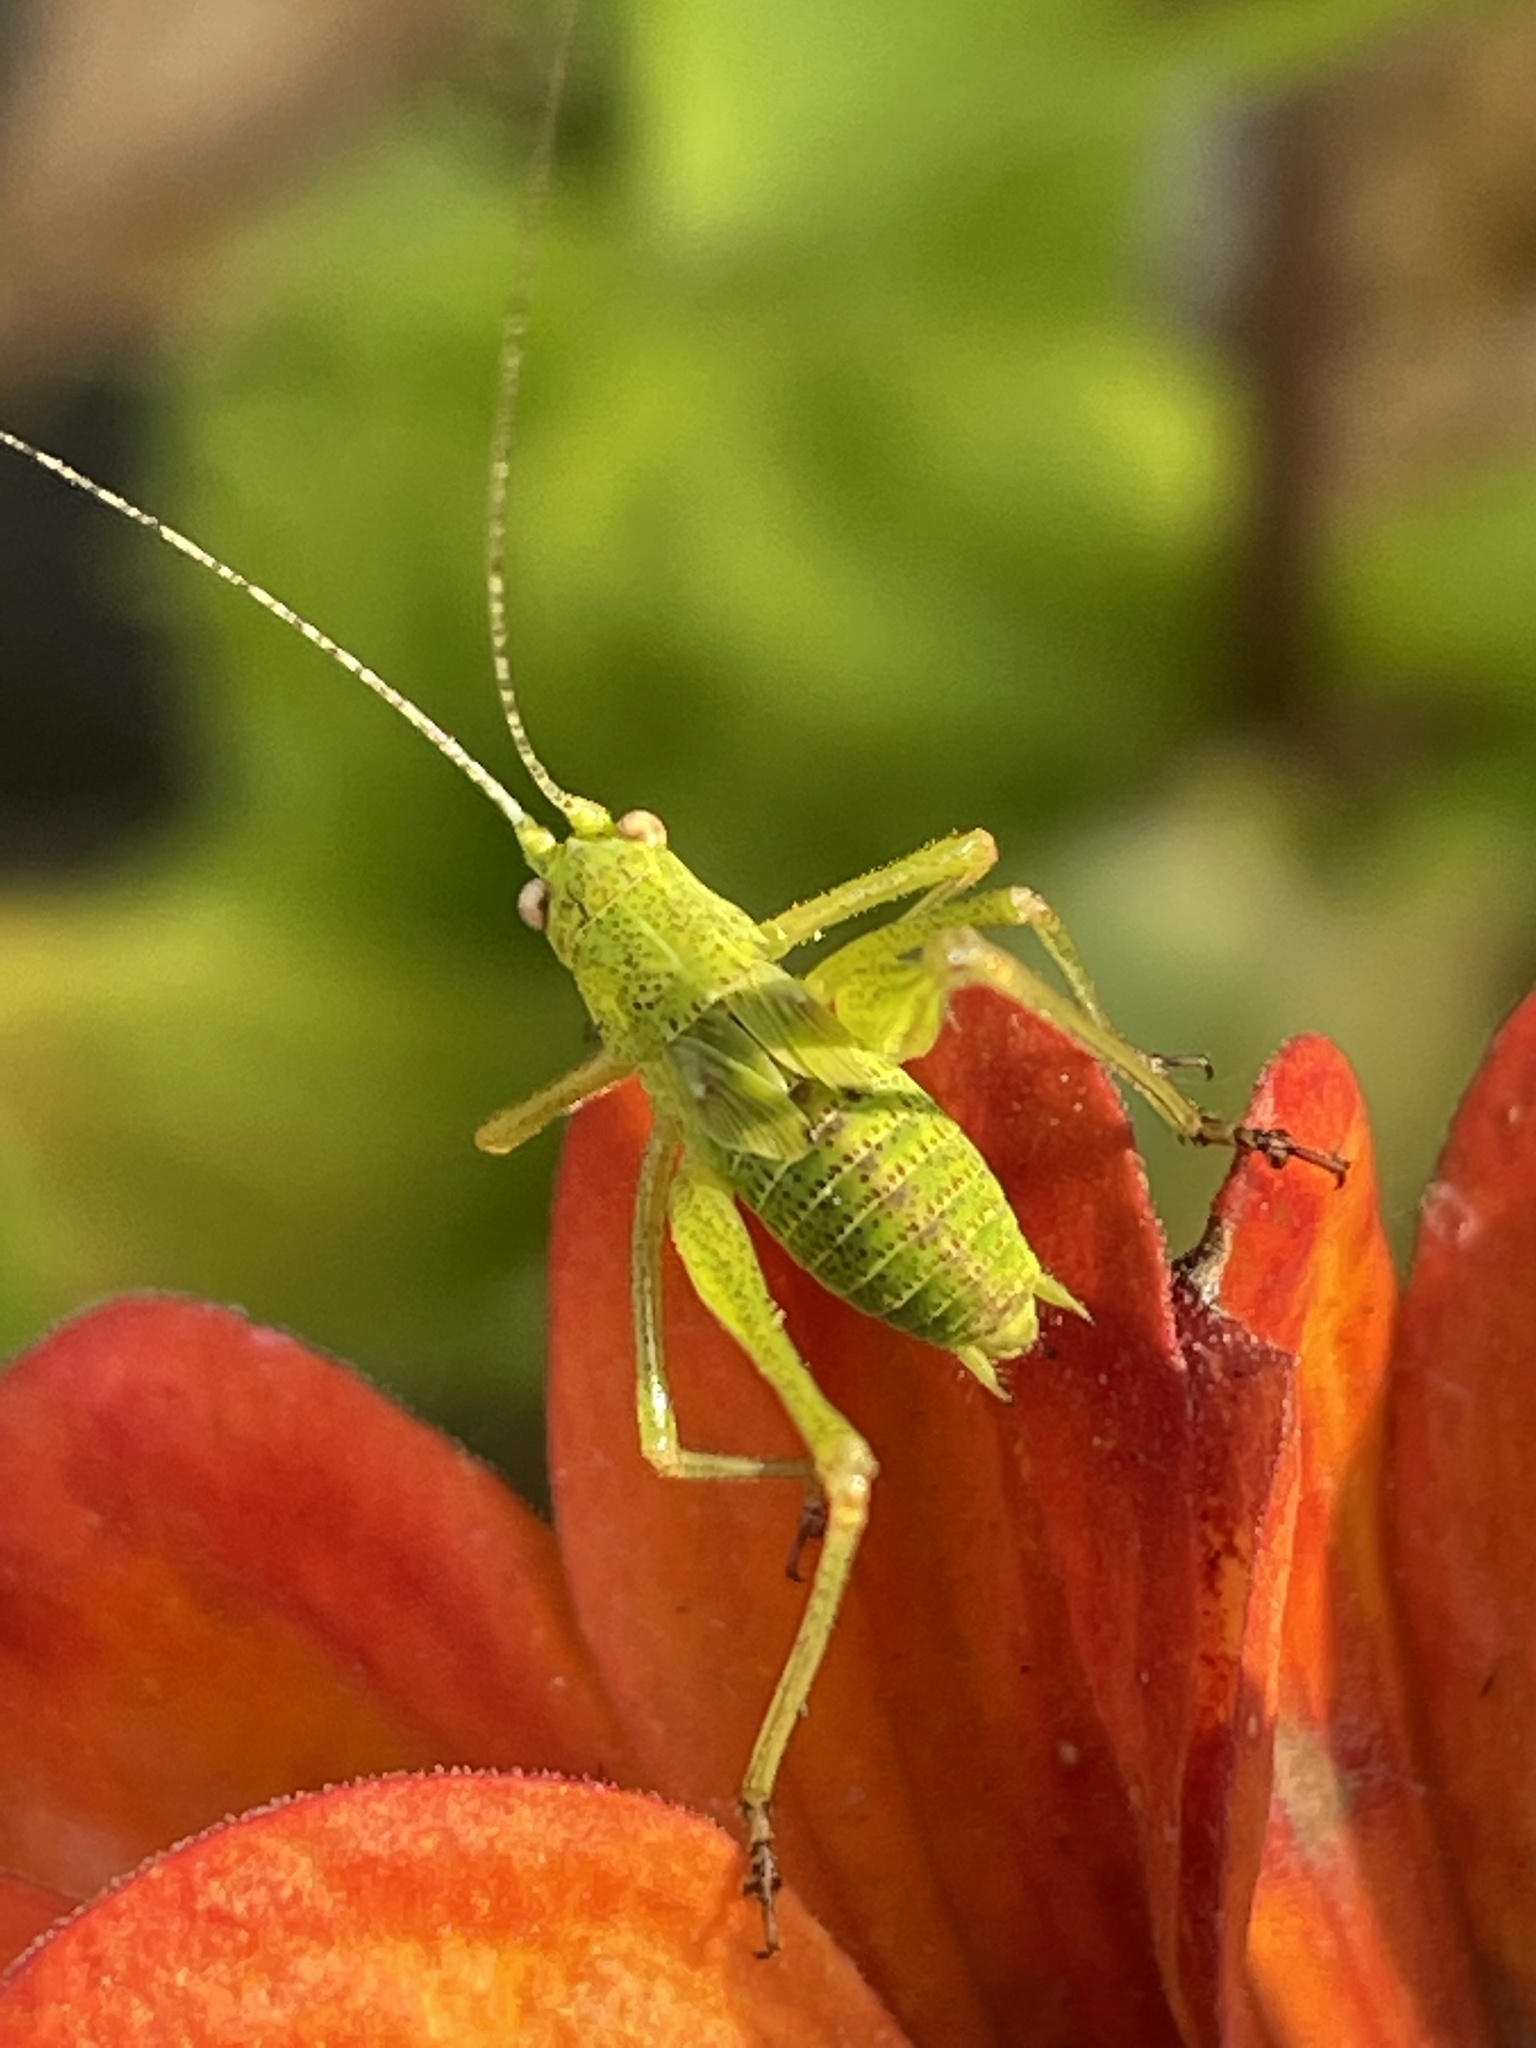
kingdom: Animalia
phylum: Arthropoda
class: Insecta
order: Orthoptera
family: Tettigoniidae
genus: Phaneroptera
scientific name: Phaneroptera nana
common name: Southern sickle bush-cricket
